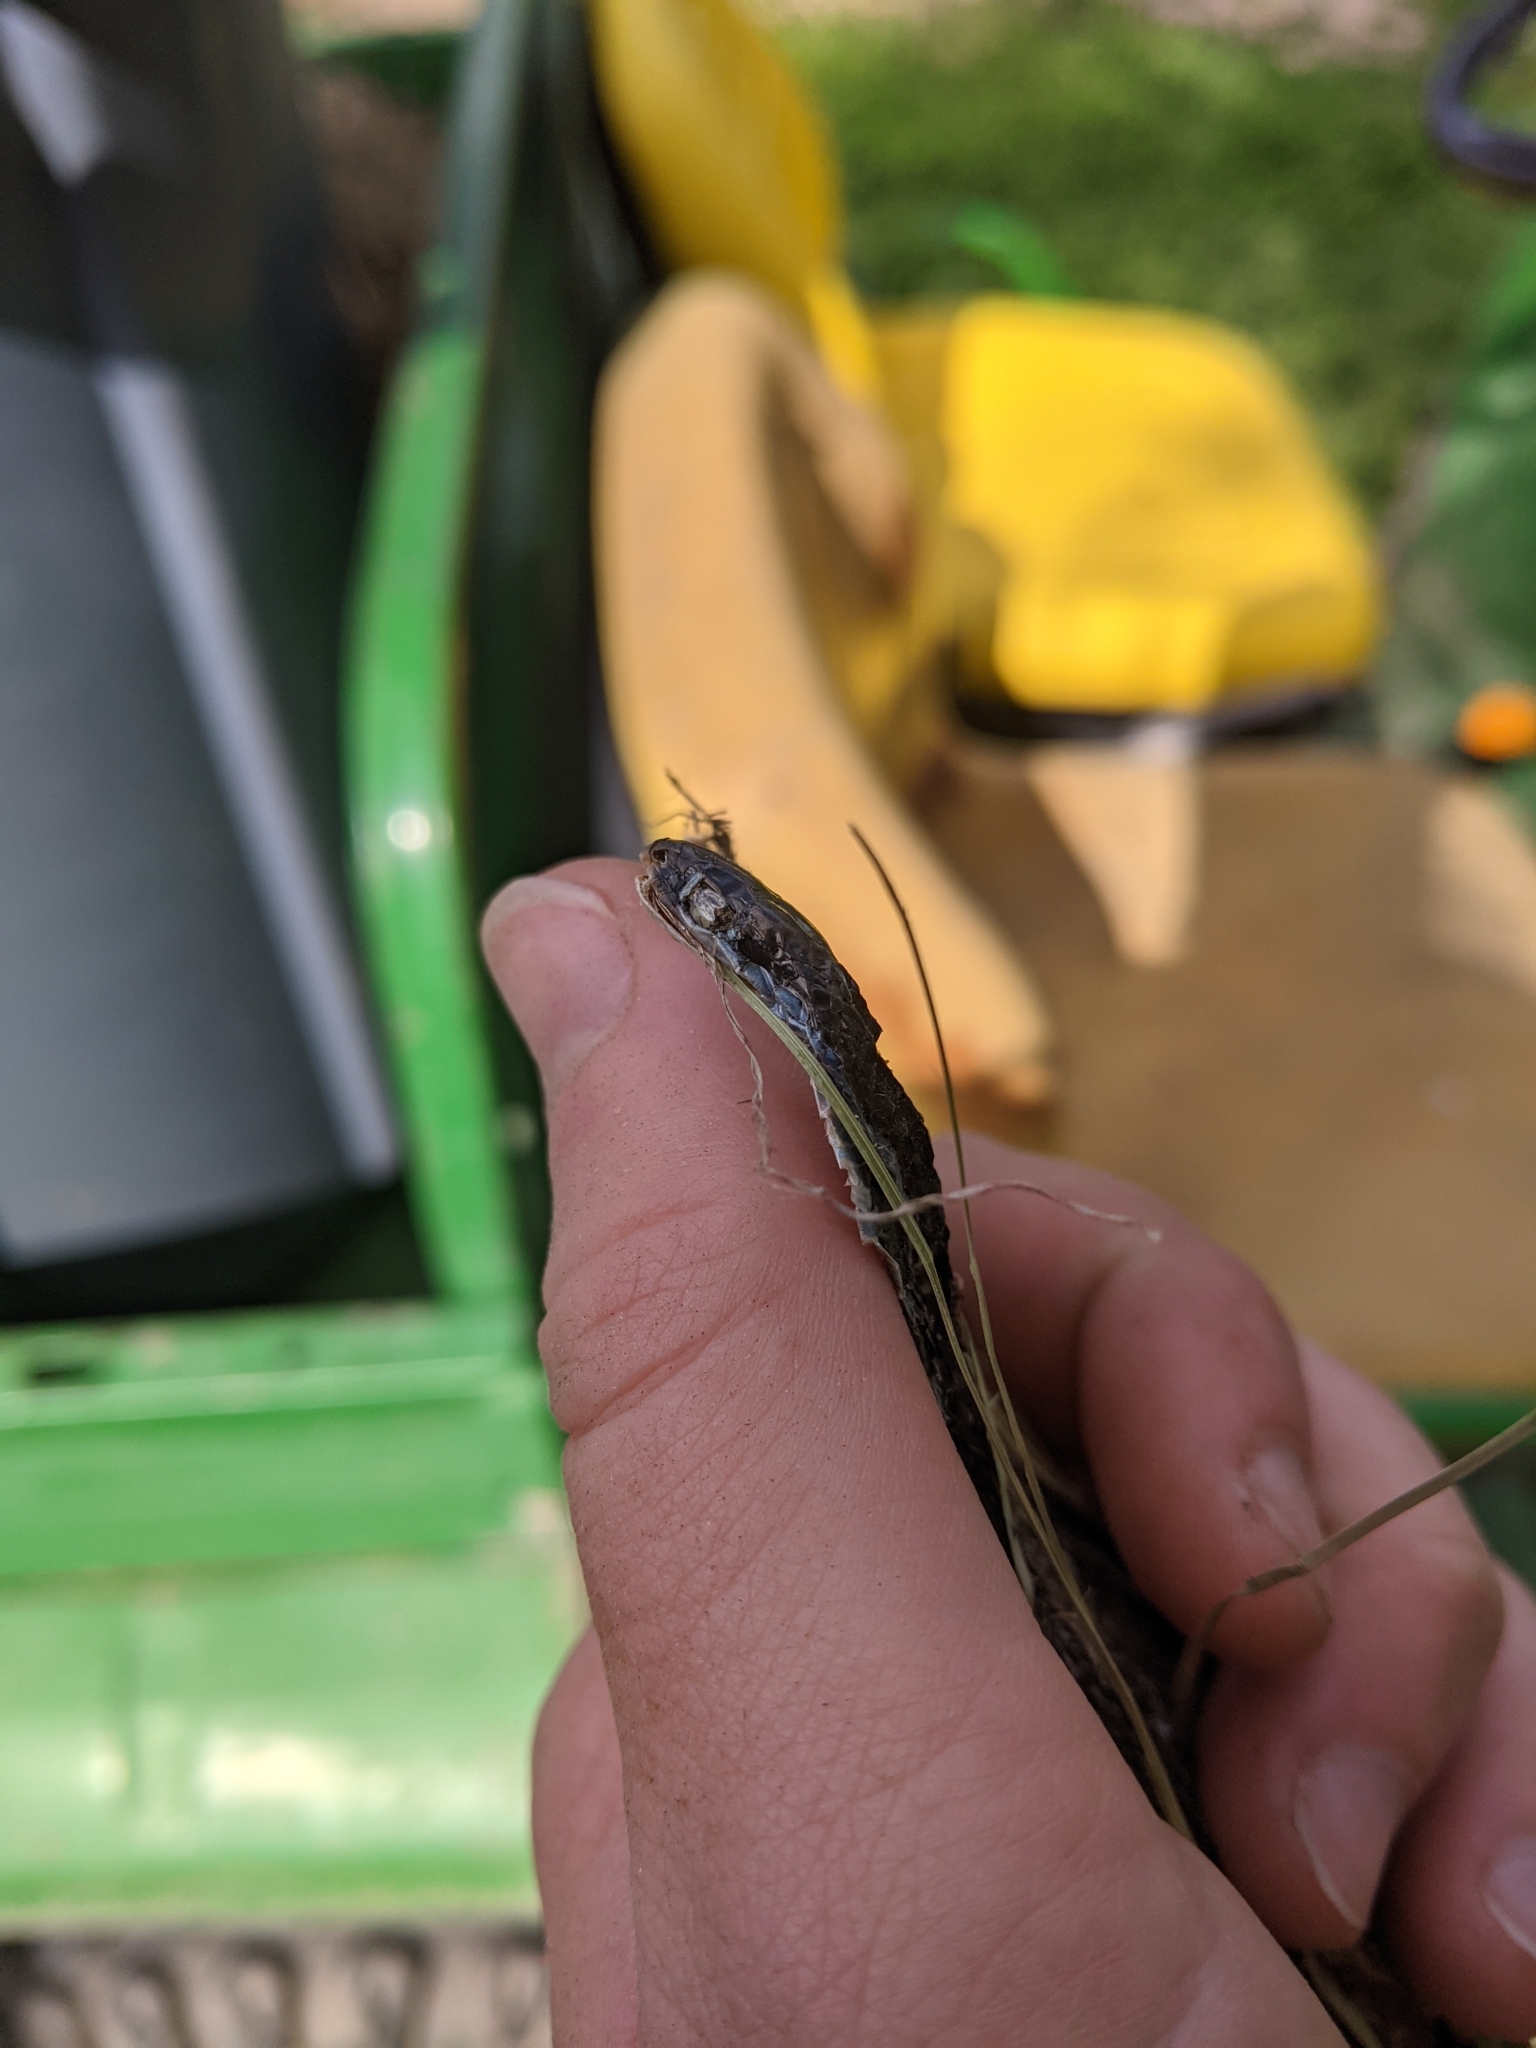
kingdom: Animalia
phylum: Chordata
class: Squamata
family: Colubridae
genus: Thamnophis
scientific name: Thamnophis proximus
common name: Western ribbon snake
